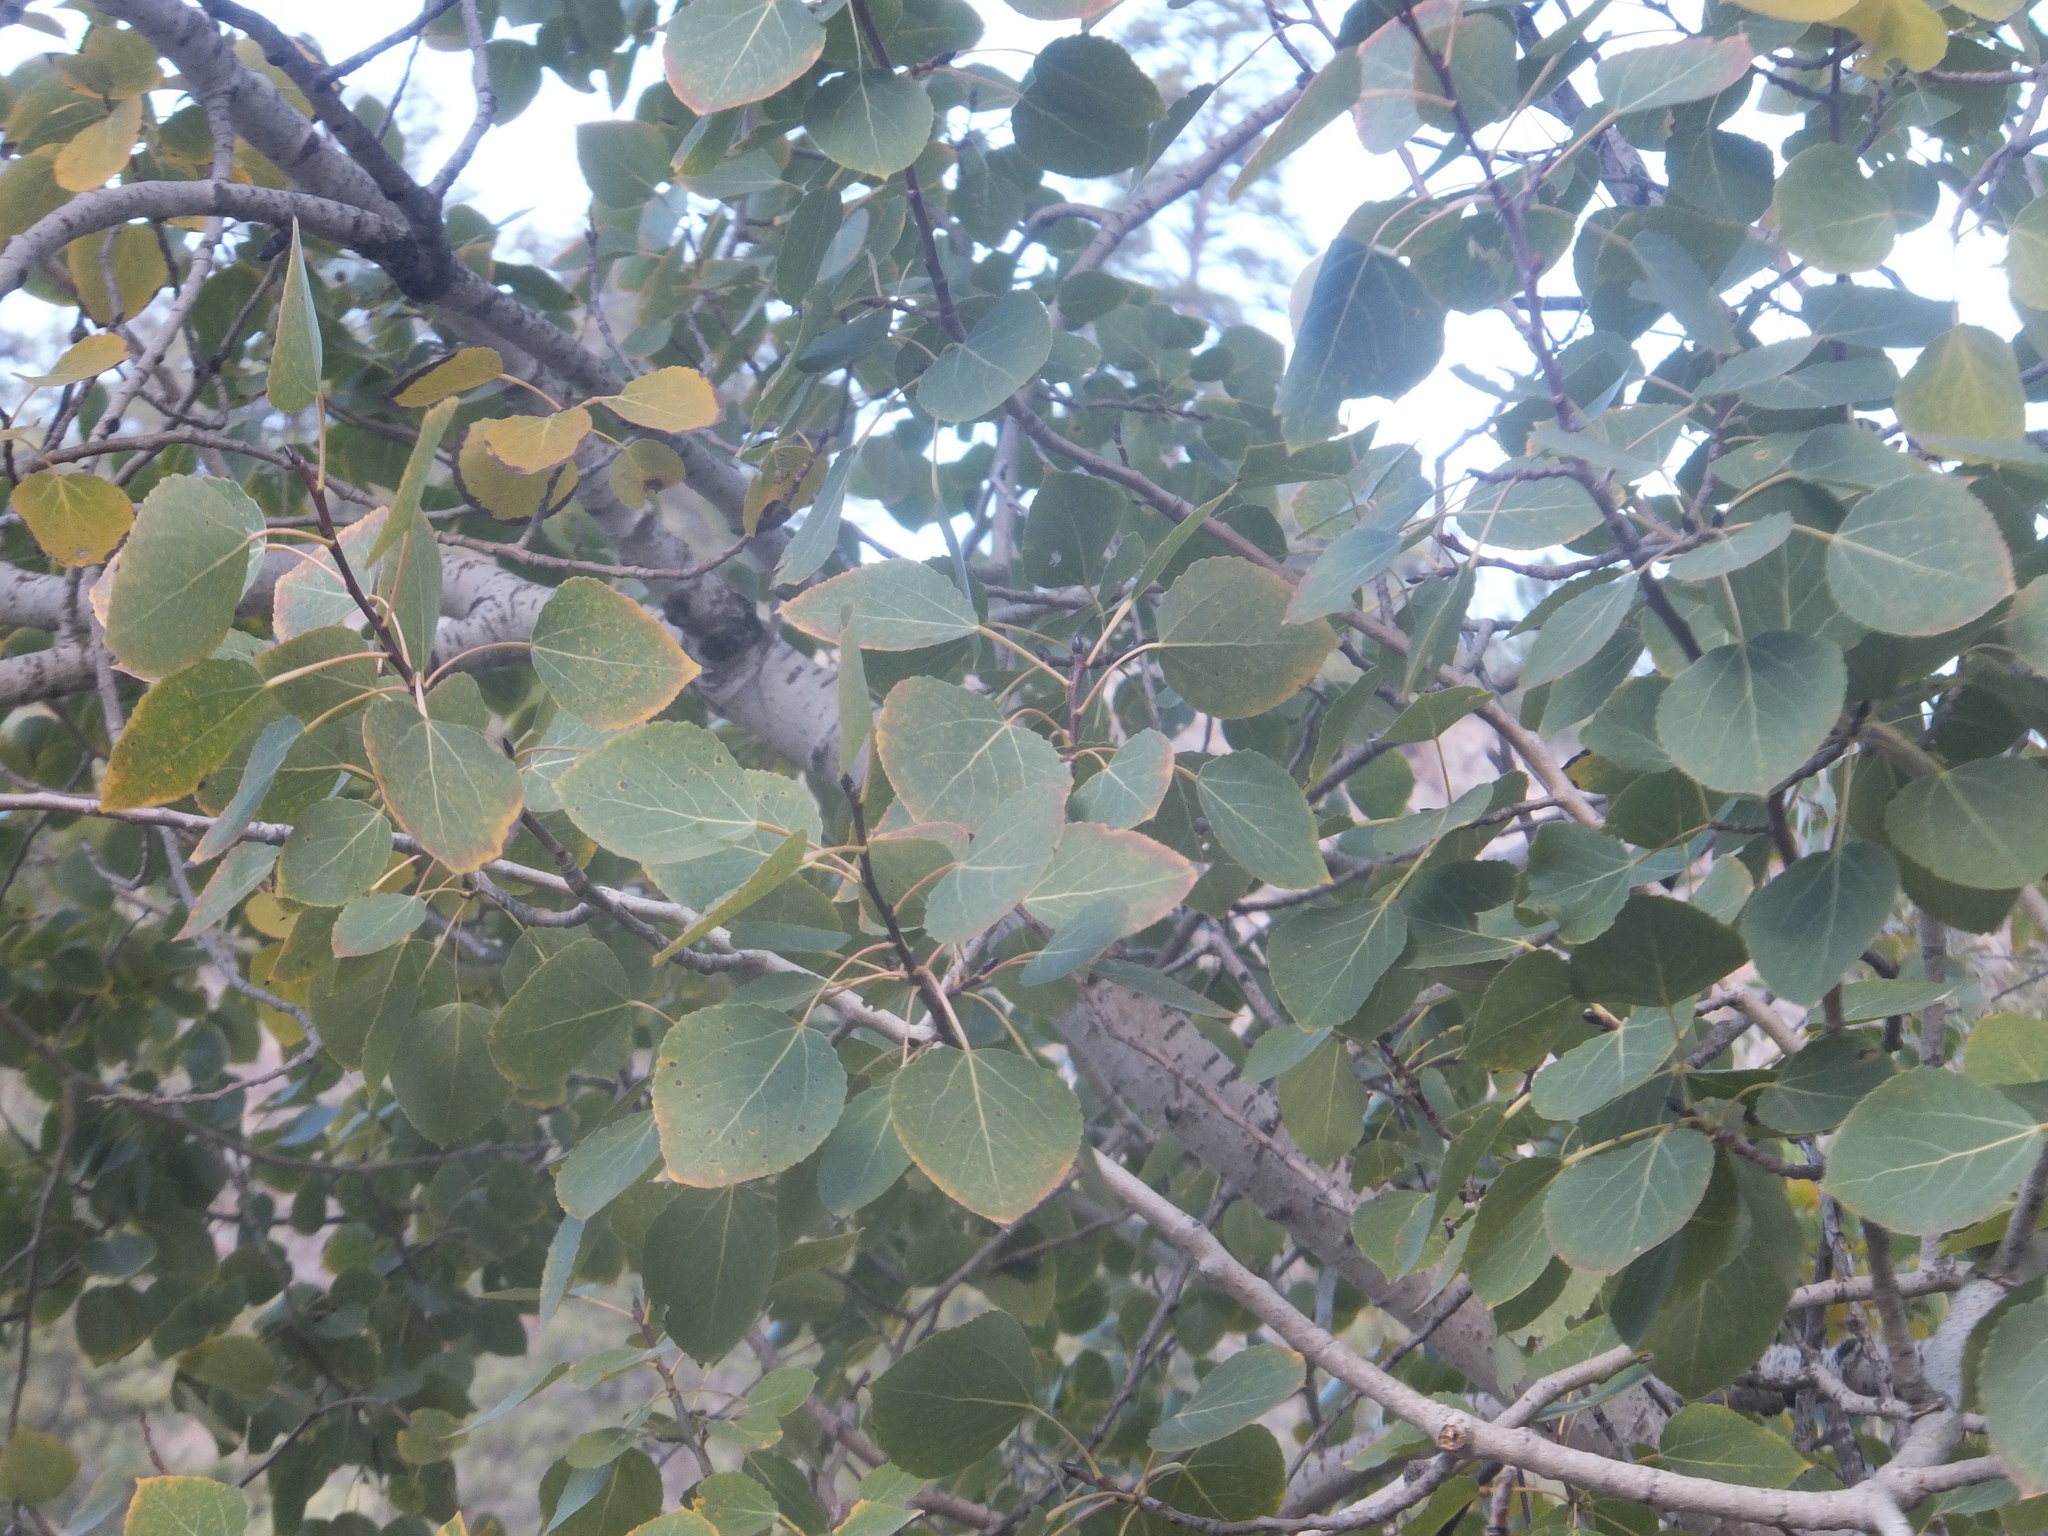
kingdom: Plantae
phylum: Tracheophyta
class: Magnoliopsida
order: Malpighiales
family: Salicaceae
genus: Populus
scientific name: Populus tremuloides
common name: Quaking aspen
